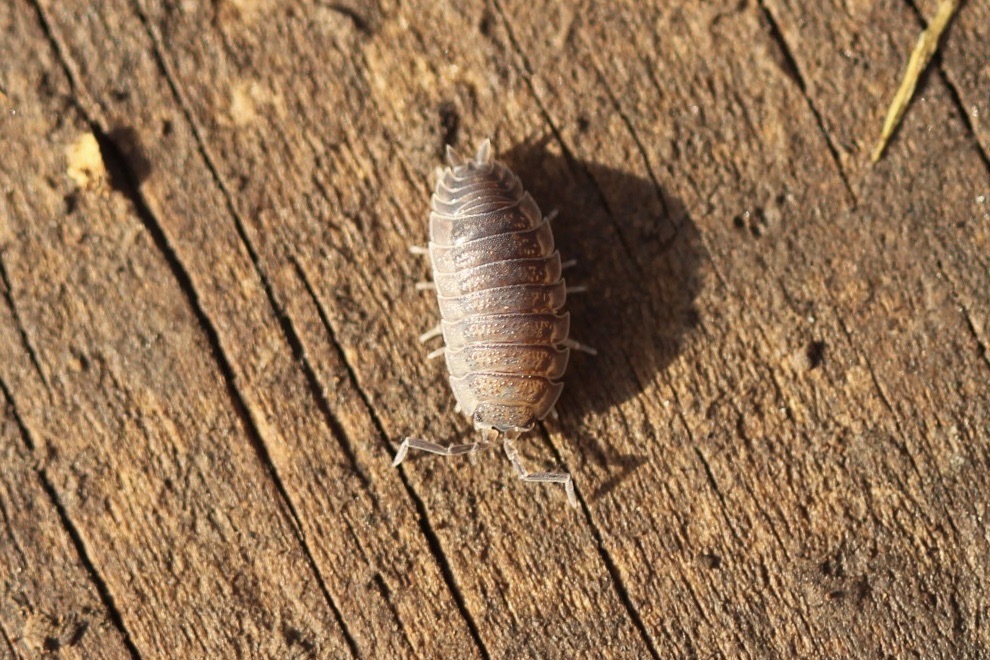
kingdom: Animalia
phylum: Arthropoda
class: Malacostraca
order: Isopoda
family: Porcellionidae
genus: Porcellio
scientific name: Porcellio scaber
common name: Common rough woodlouse
